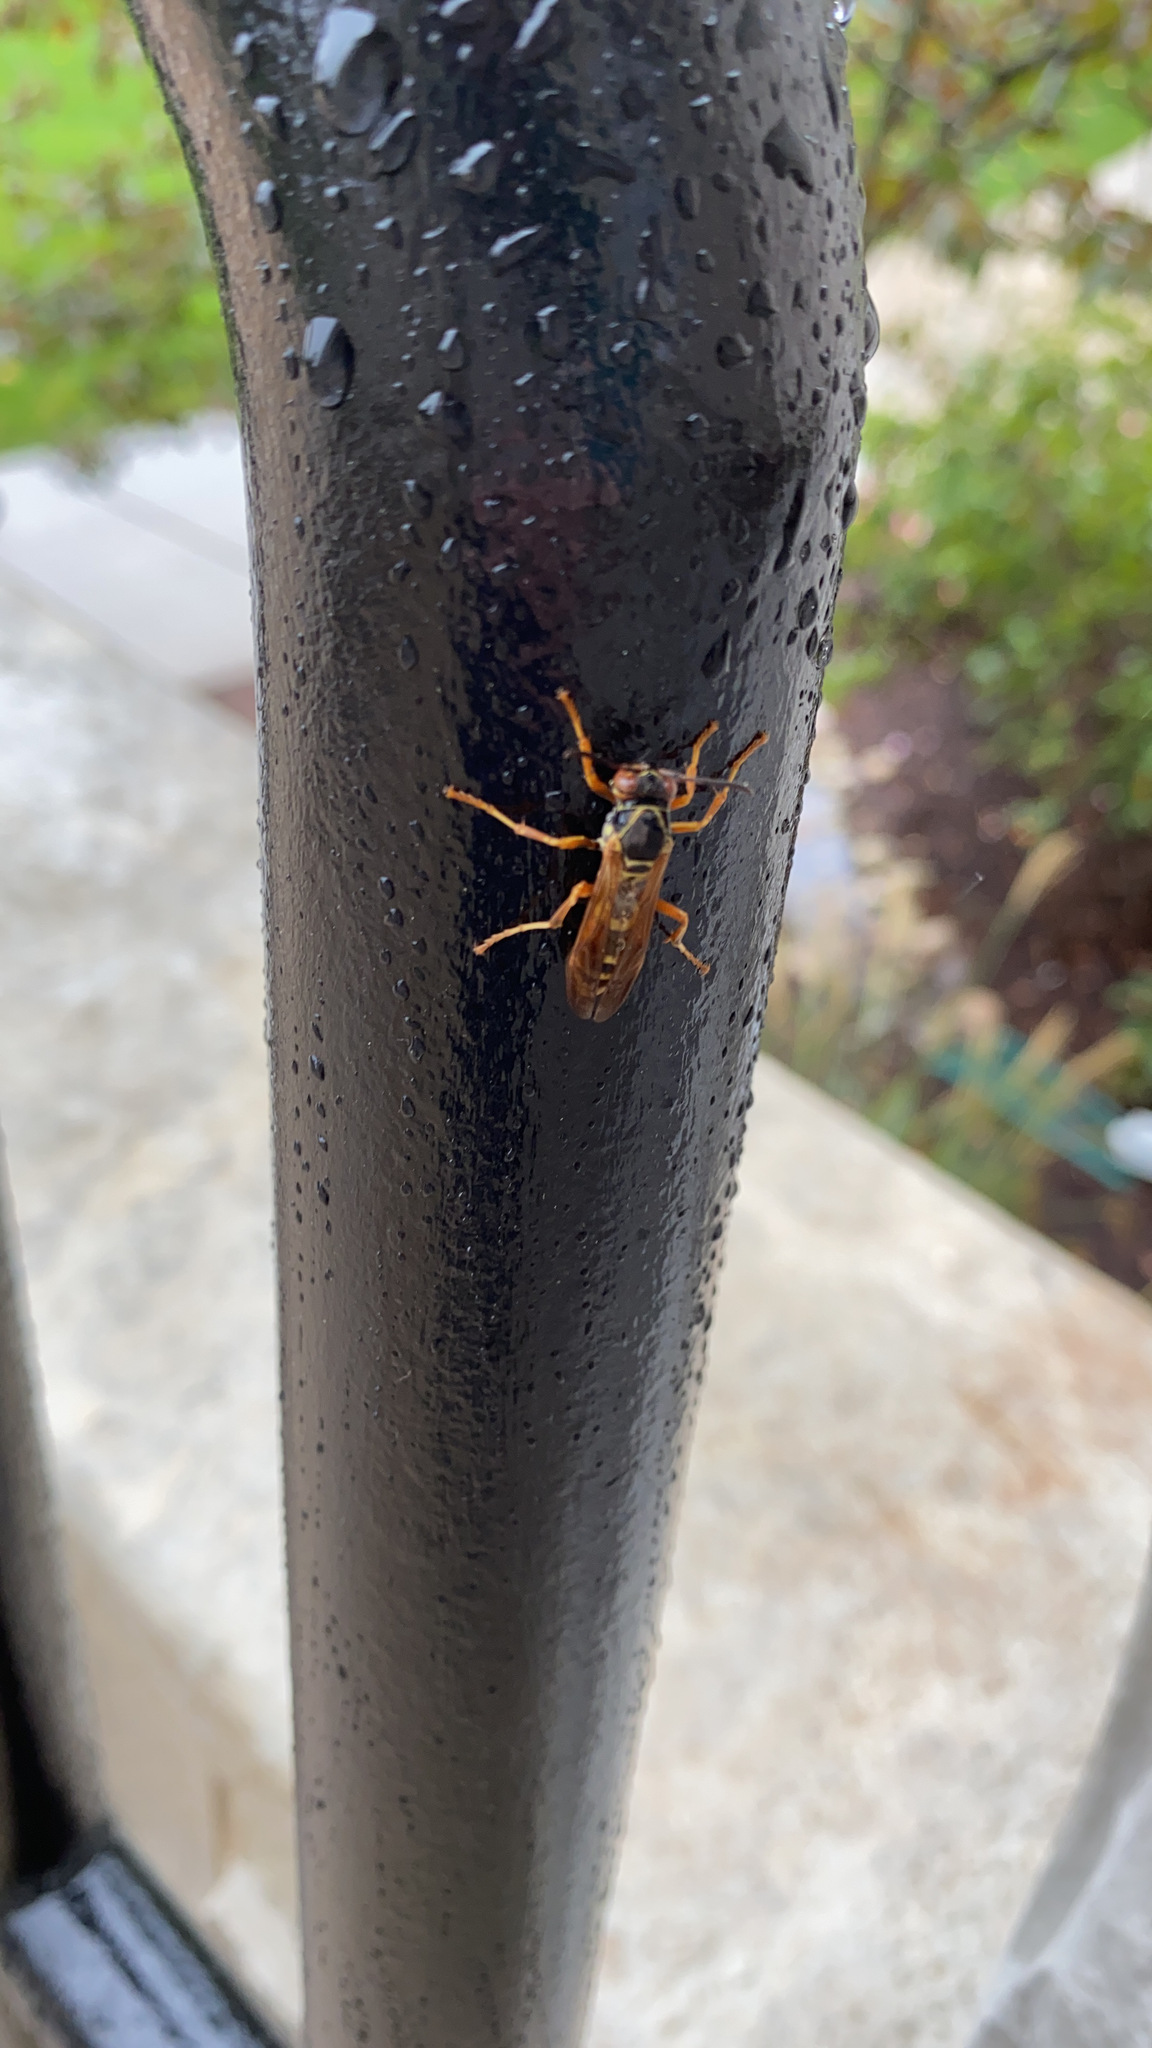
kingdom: Animalia
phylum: Arthropoda
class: Insecta
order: Hymenoptera
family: Eumenidae
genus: Polistes
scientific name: Polistes fuscatus
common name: Dark paper wasp
